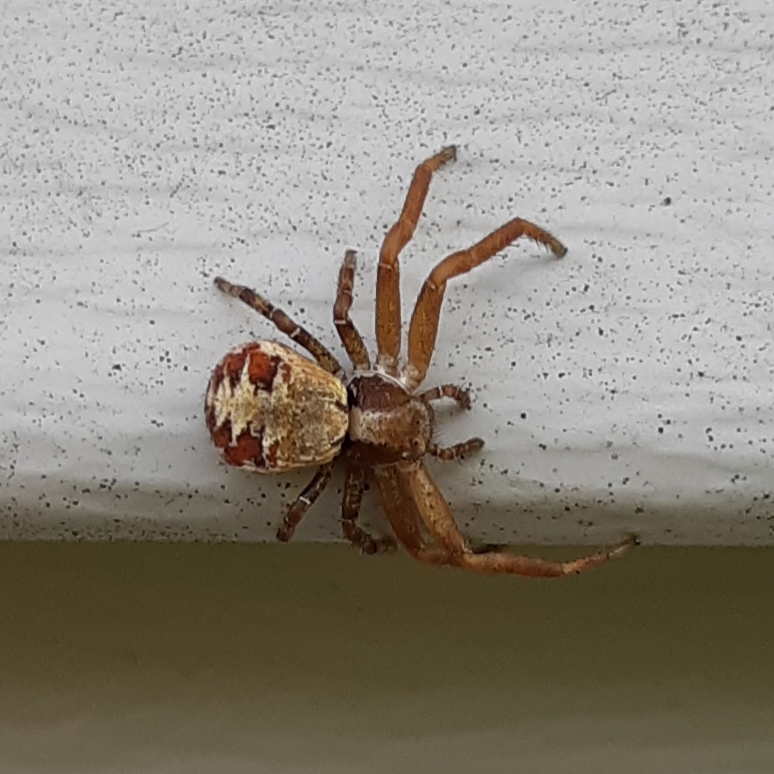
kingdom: Animalia
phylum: Arthropoda
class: Arachnida
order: Araneae
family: Thomisidae
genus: Xysticus
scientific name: Xysticus punctatus
